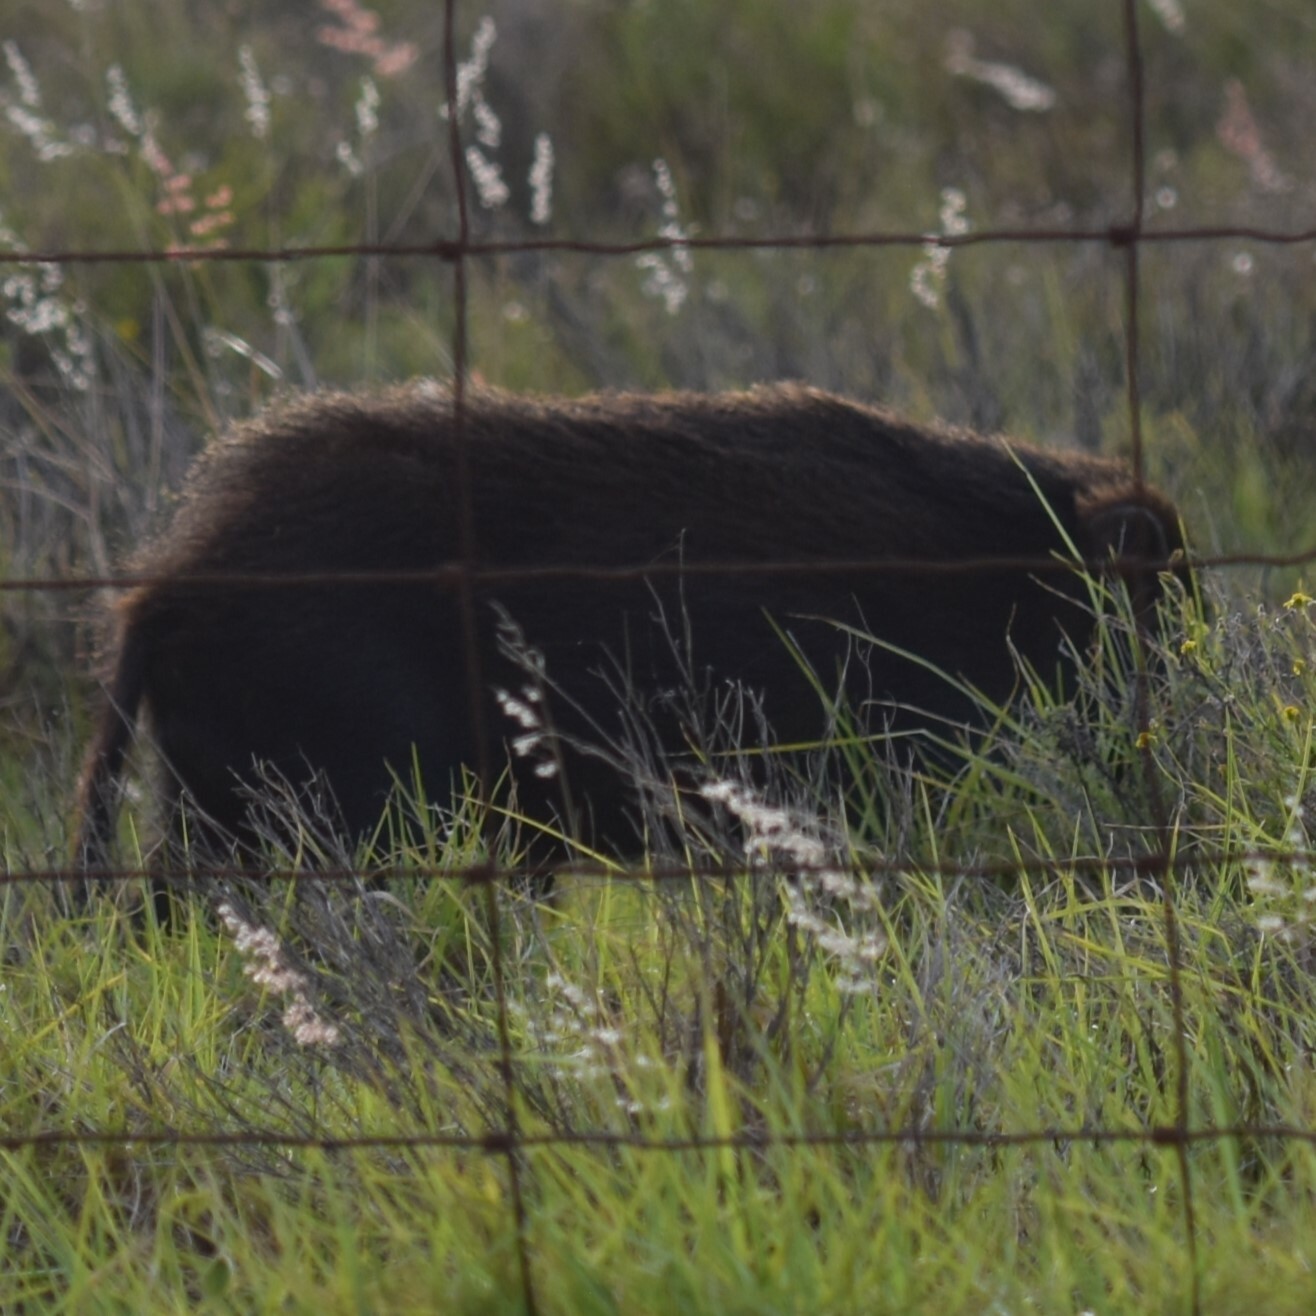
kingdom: Animalia
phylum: Chordata
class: Mammalia
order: Artiodactyla
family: Suidae
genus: Sus
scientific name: Sus scrofa
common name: Wild boar
